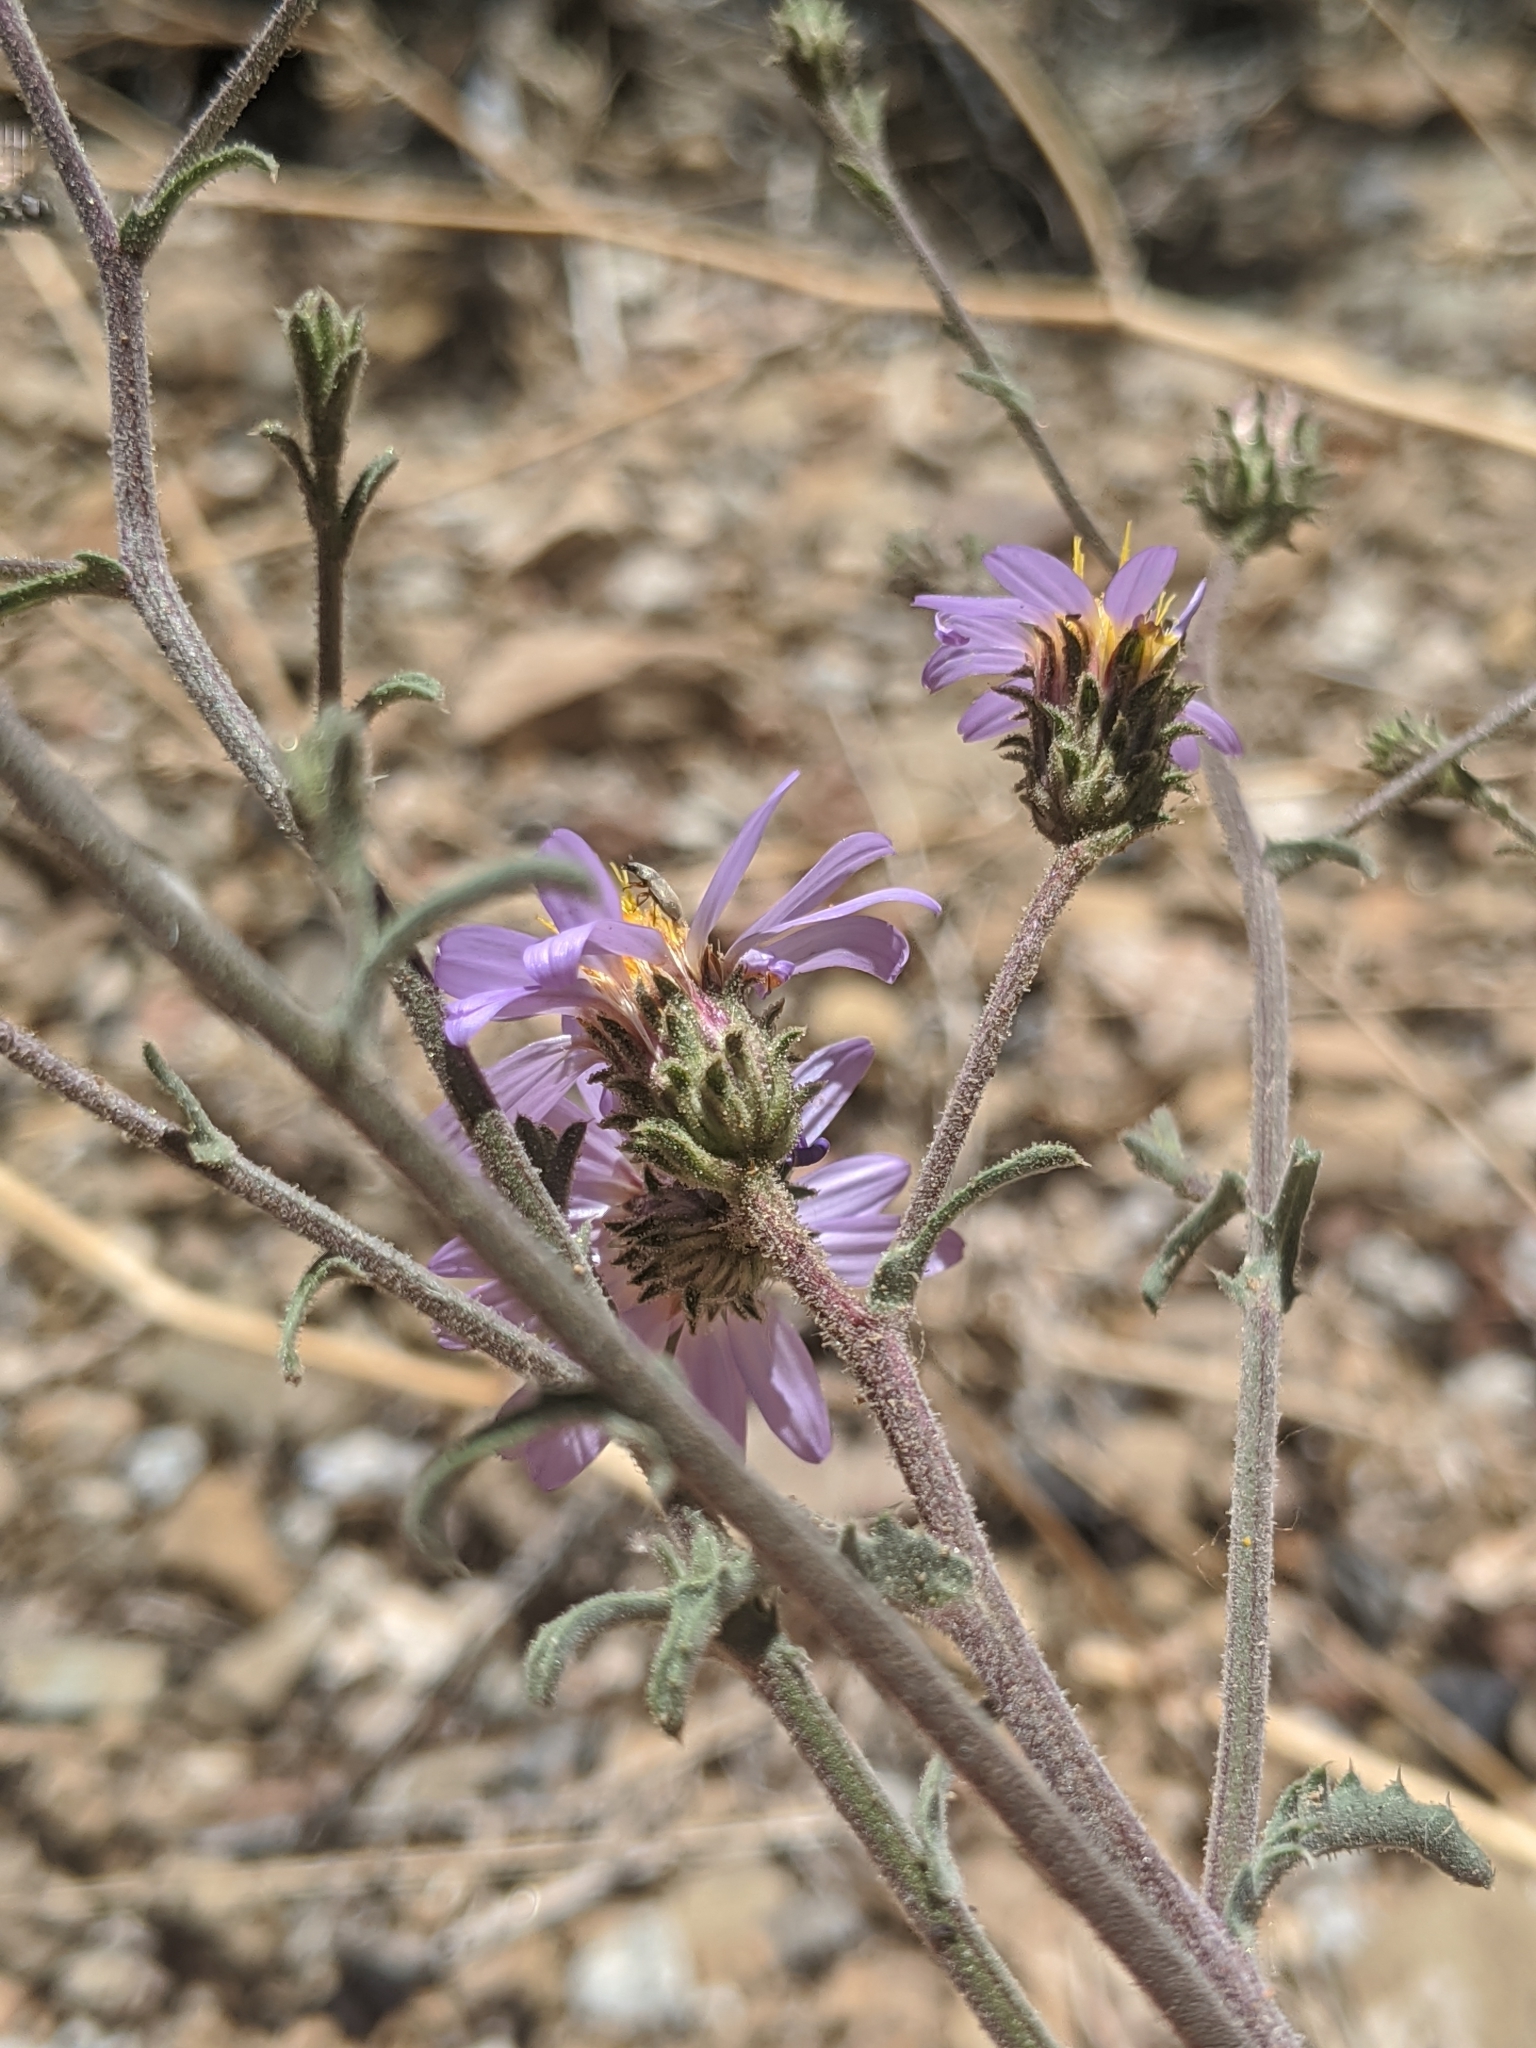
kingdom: Plantae
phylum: Tracheophyta
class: Magnoliopsida
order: Asterales
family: Asteraceae
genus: Dieteria
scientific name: Dieteria canescens
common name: Hoary-aster
